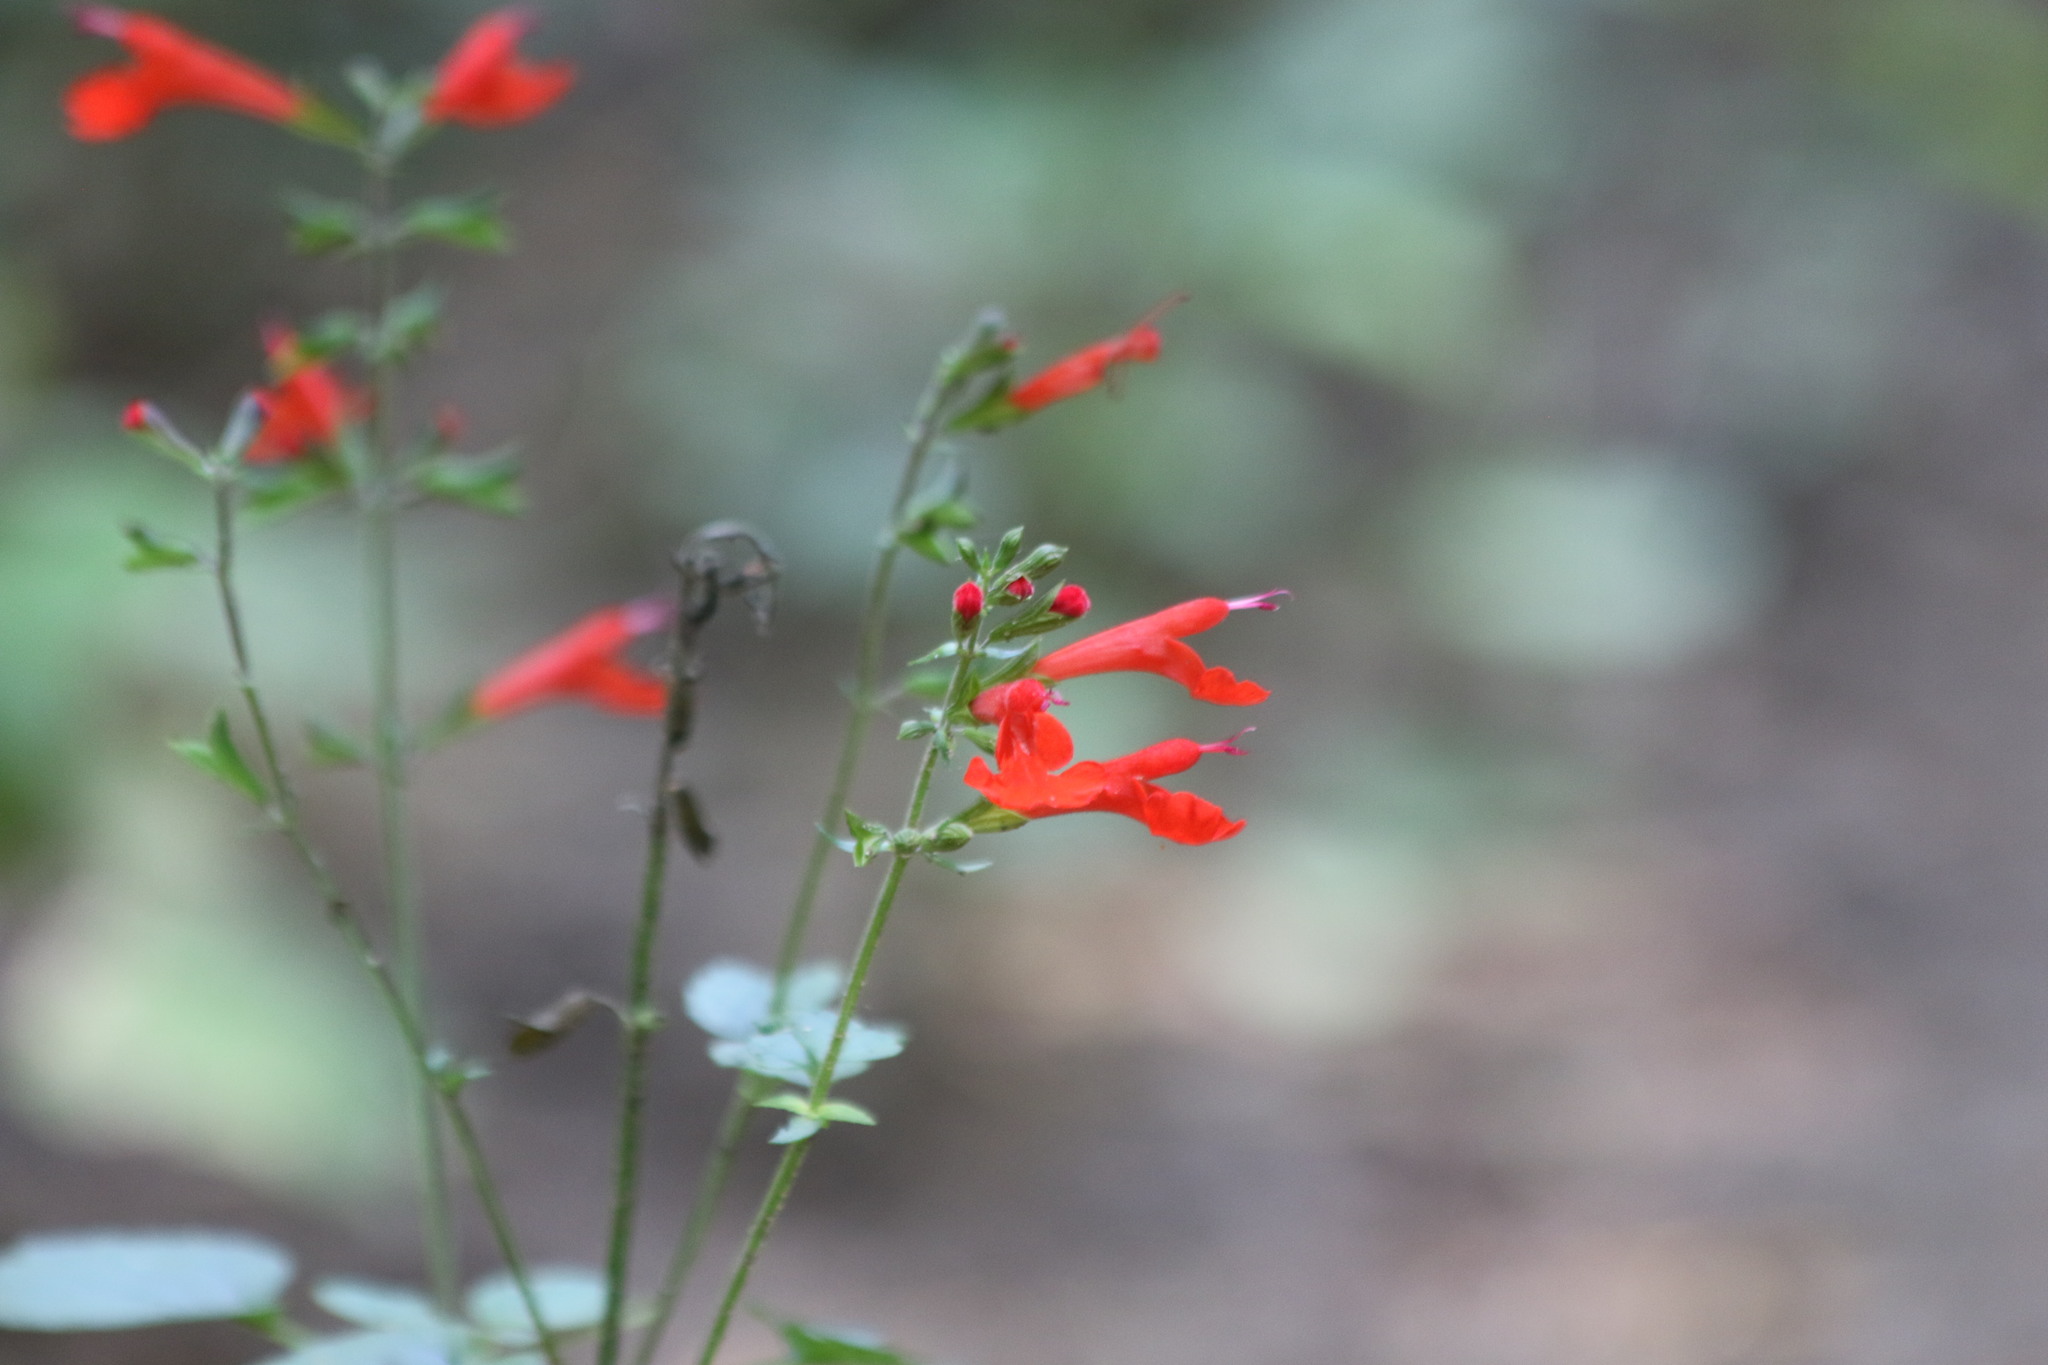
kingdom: Plantae
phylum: Tracheophyta
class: Magnoliopsida
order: Lamiales
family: Lamiaceae
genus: Salvia
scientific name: Salvia coccinea
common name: Blood sage
